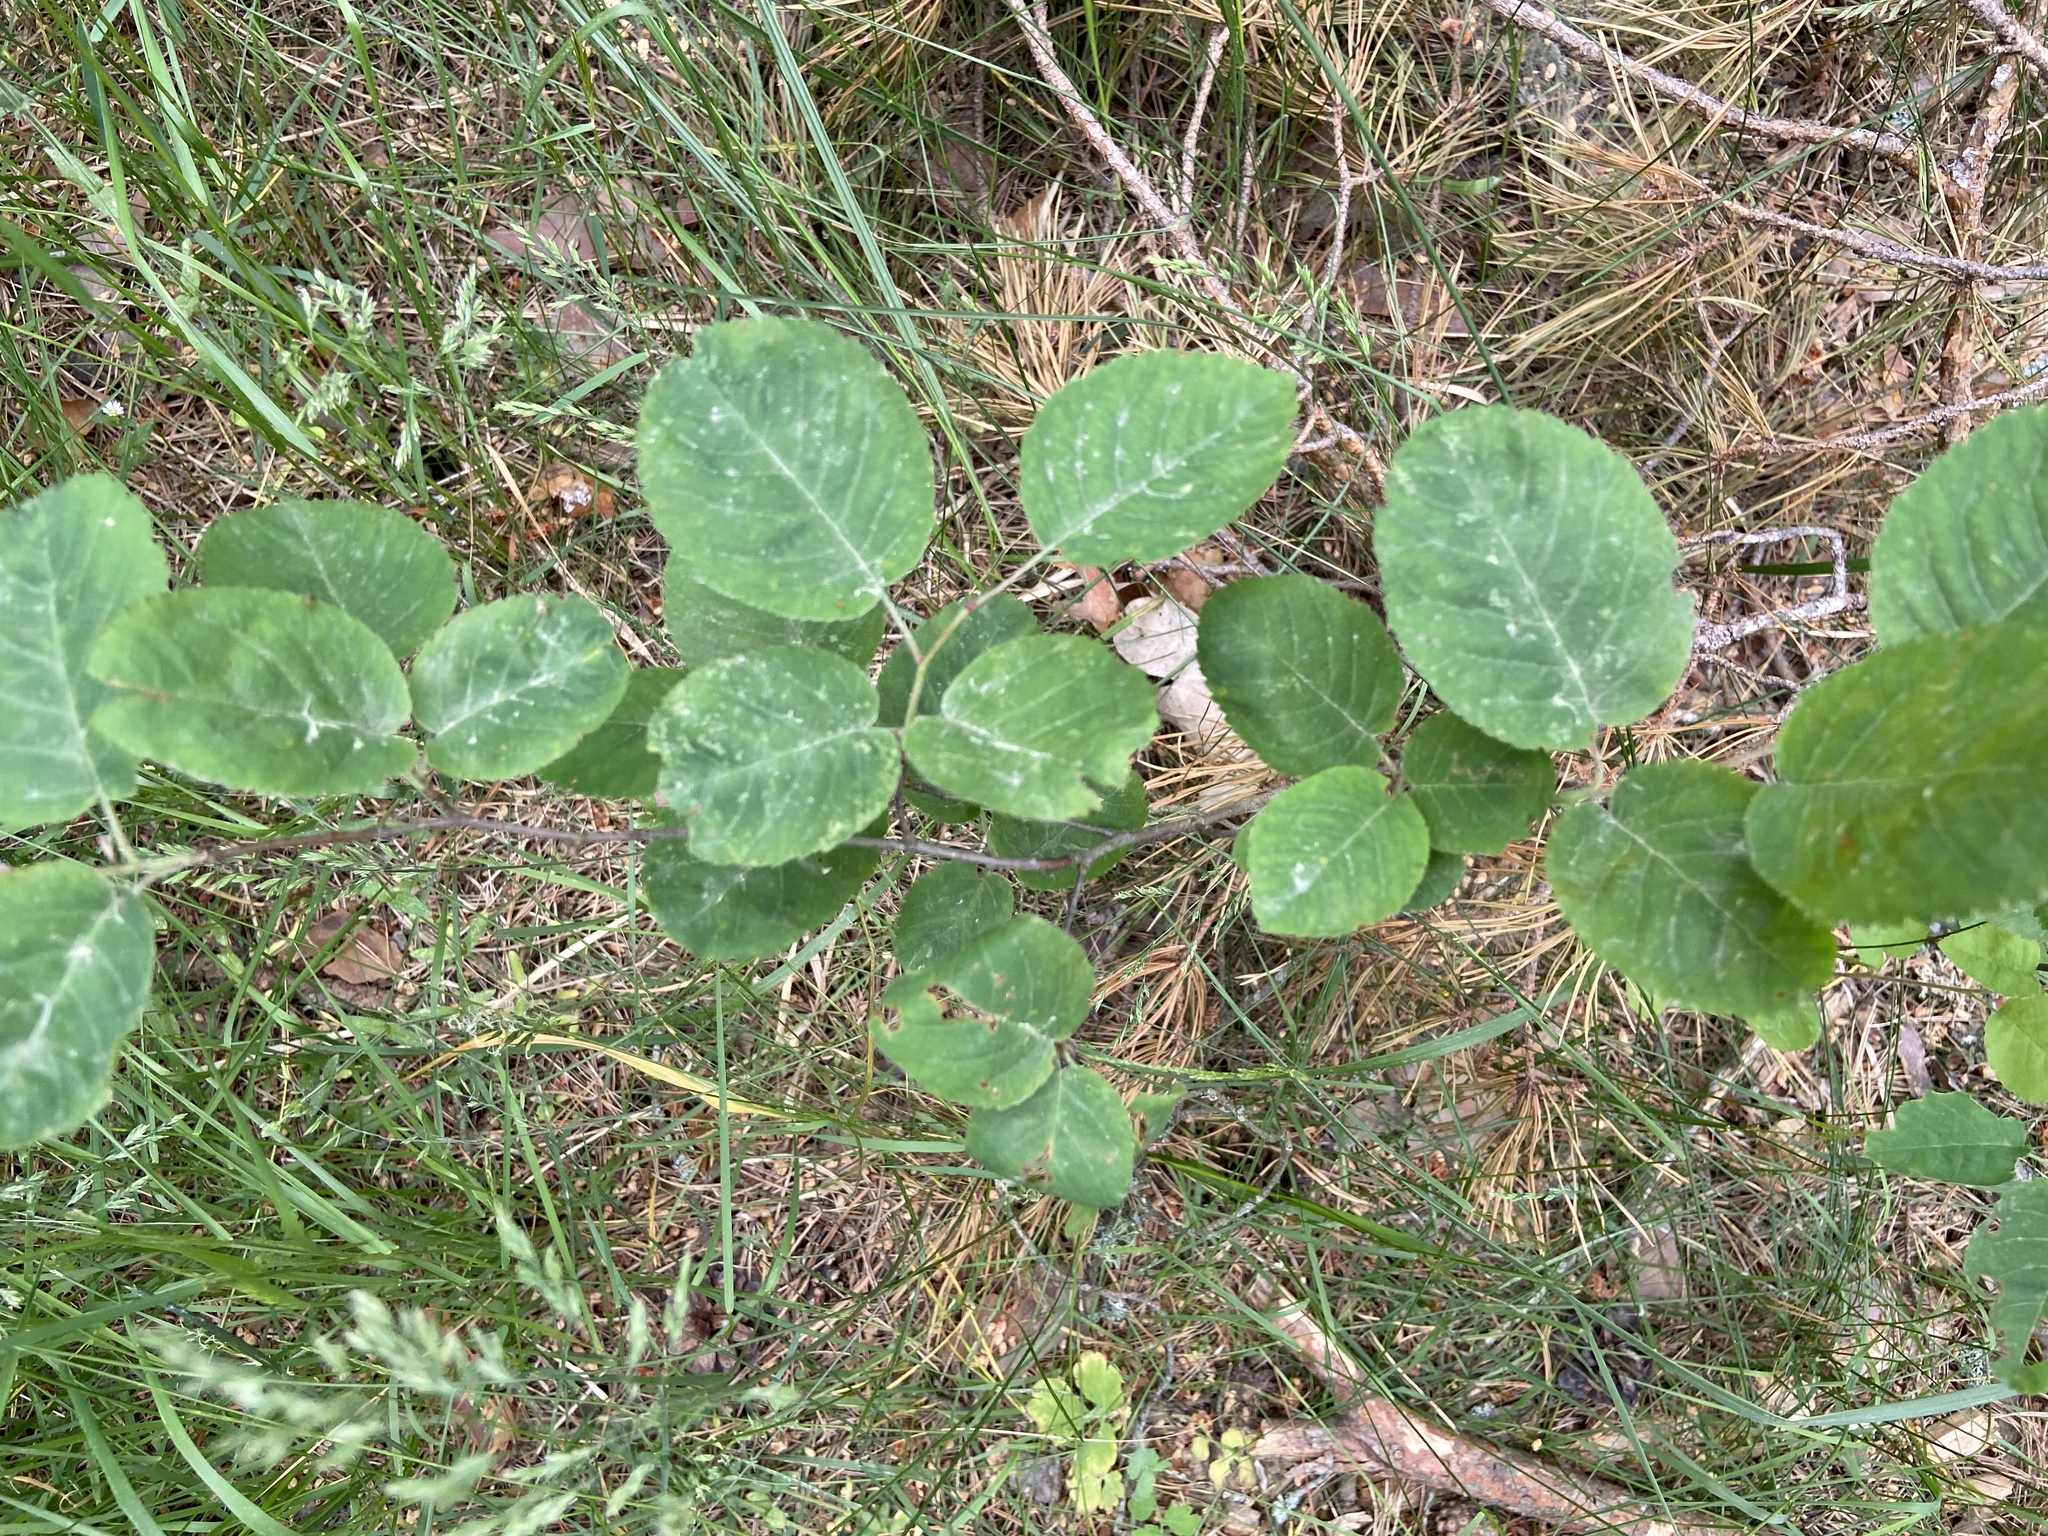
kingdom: Plantae
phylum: Tracheophyta
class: Magnoliopsida
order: Rosales
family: Rosaceae
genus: Amelanchier
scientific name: Amelanchier
